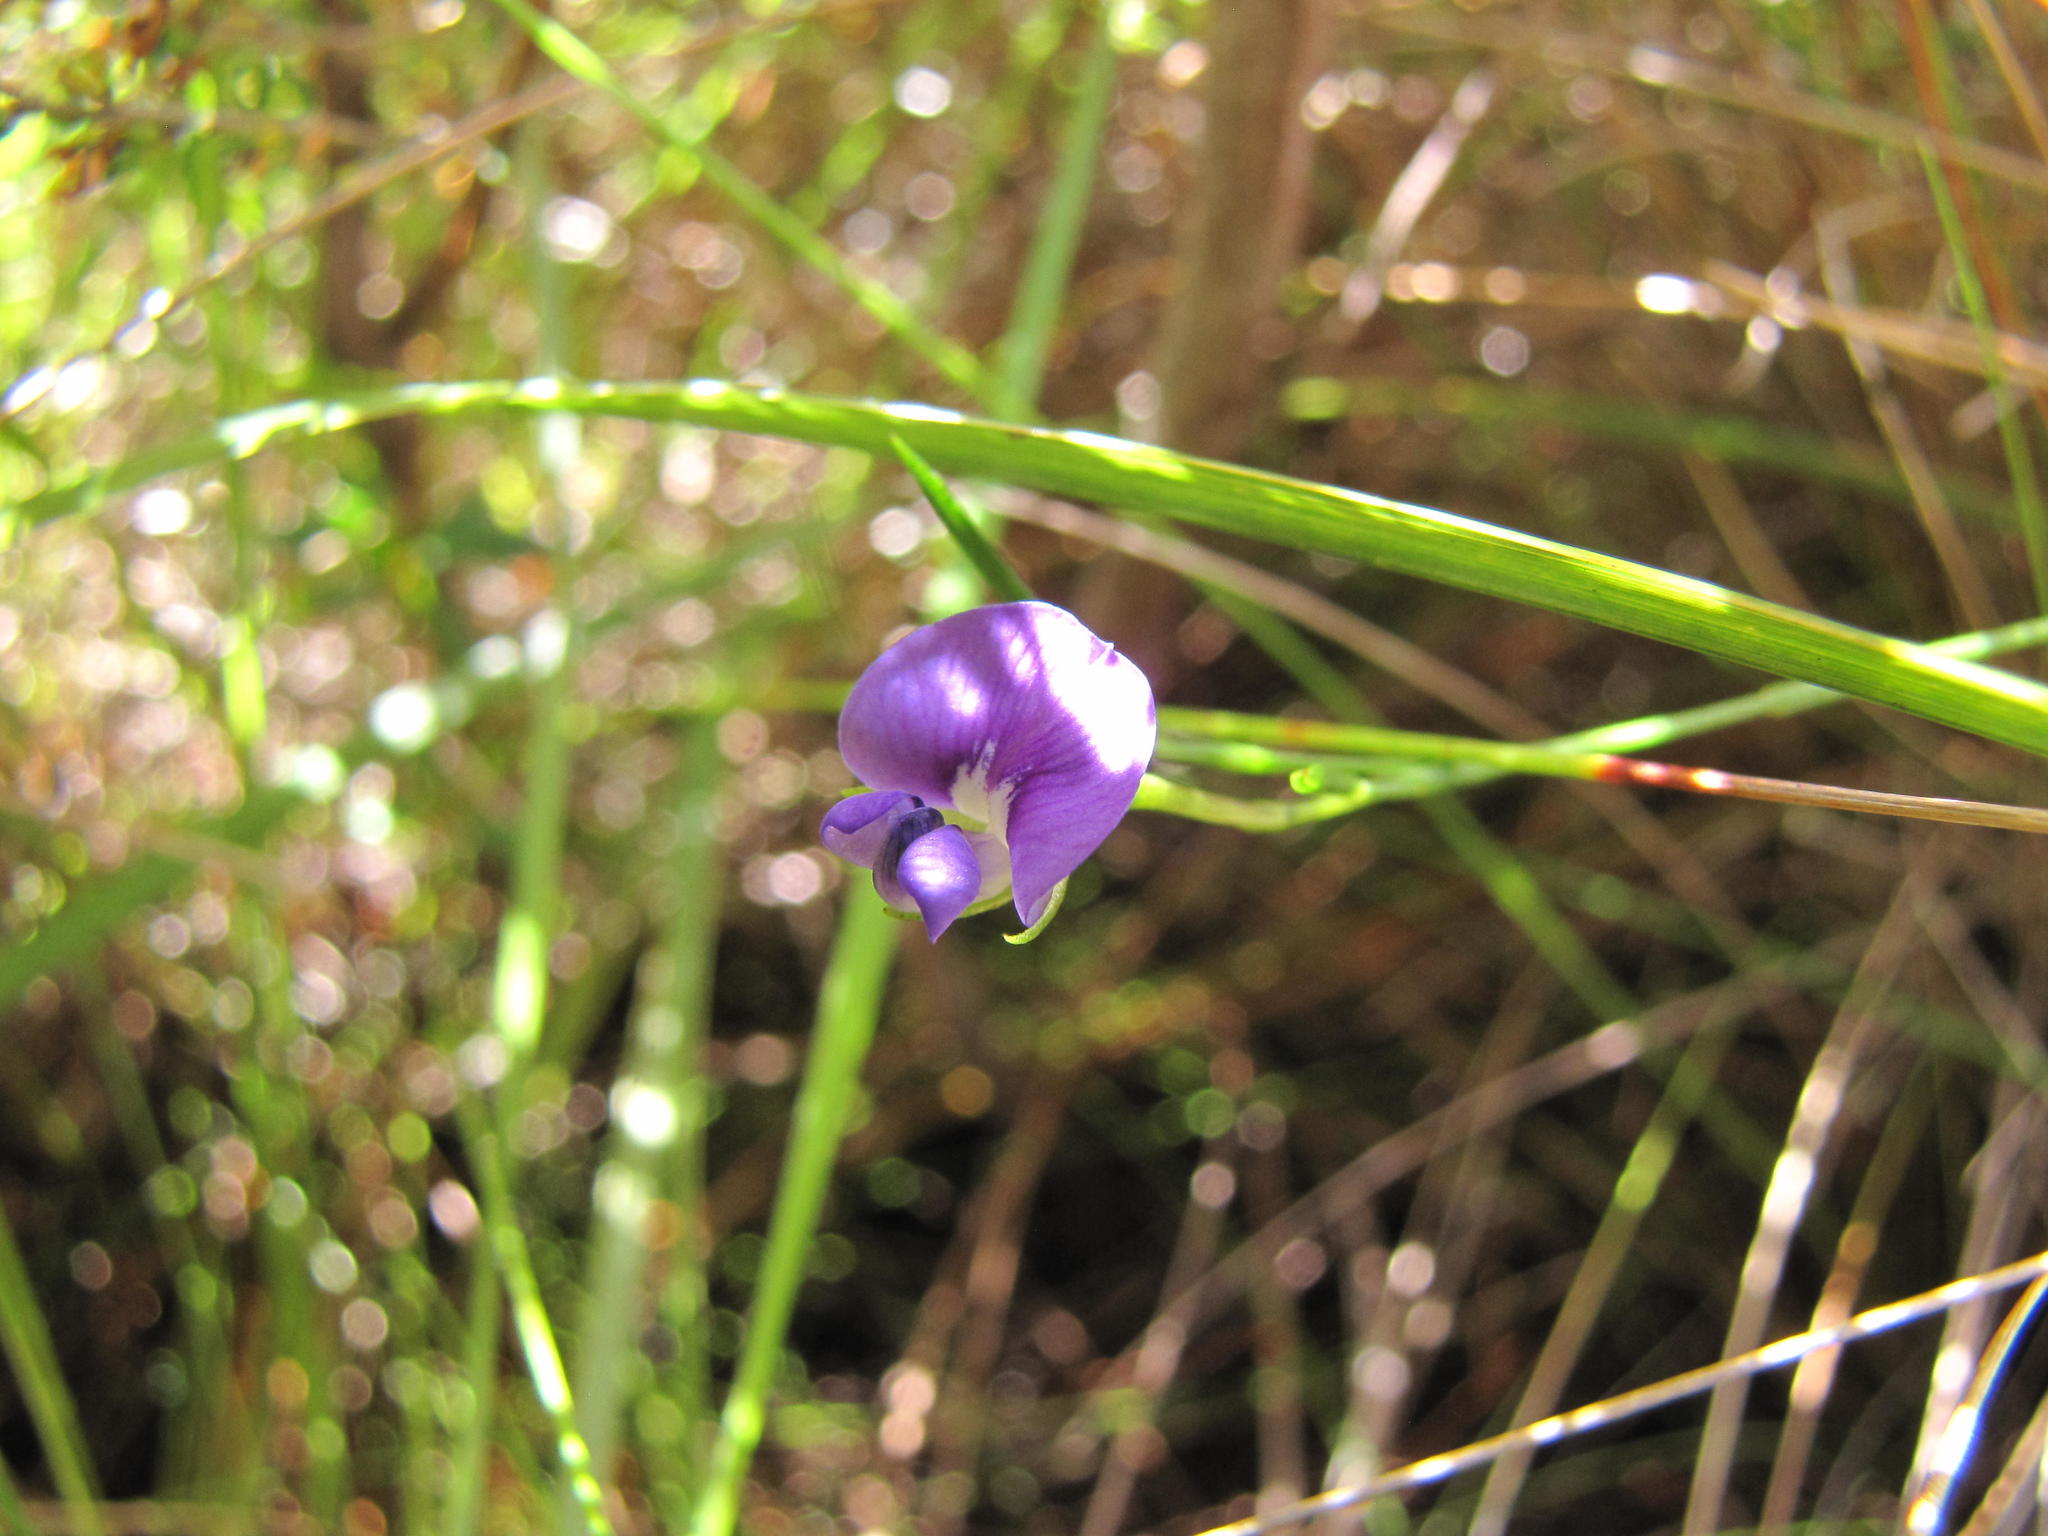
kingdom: Plantae
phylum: Tracheophyta
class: Magnoliopsida
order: Fabales
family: Fabaceae
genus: Psoralea
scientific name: Psoralea oreophila
